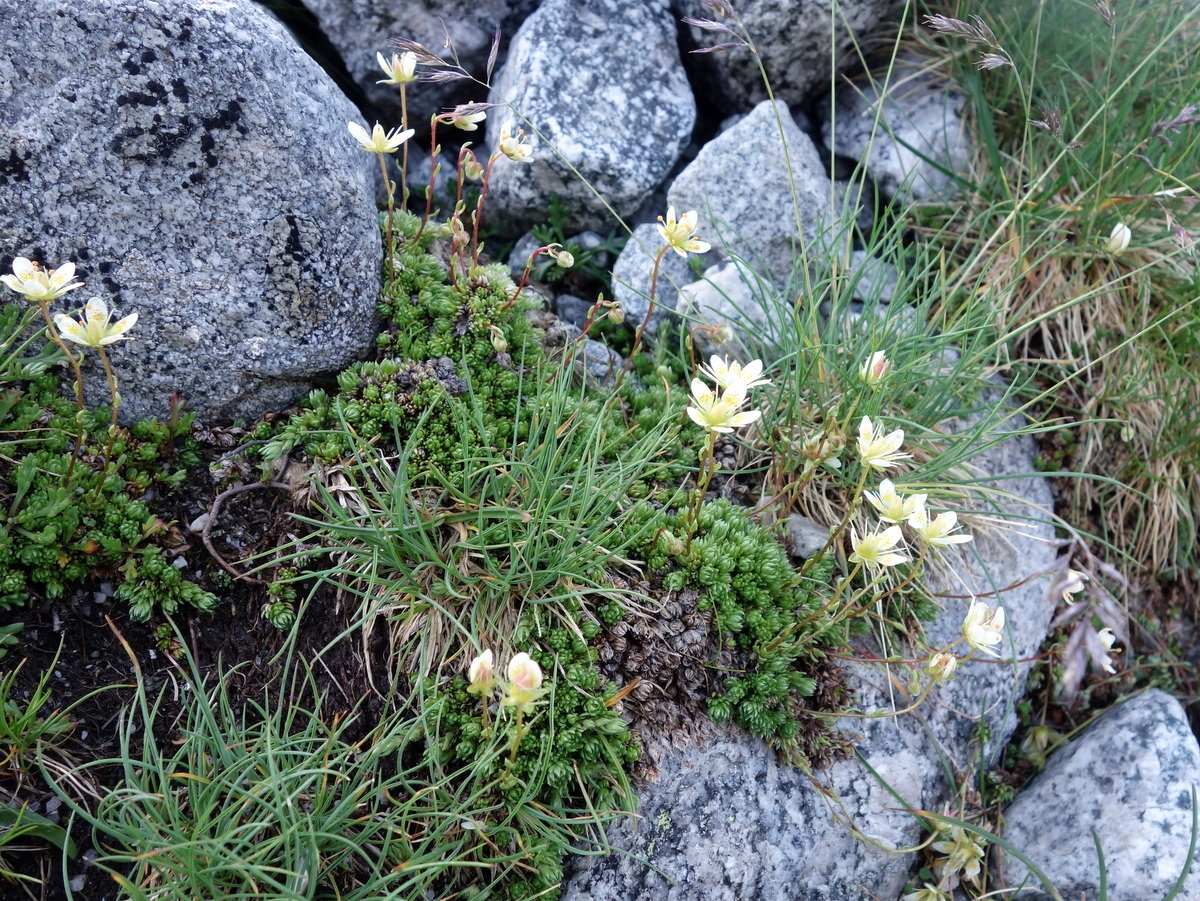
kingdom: Plantae
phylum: Tracheophyta
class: Magnoliopsida
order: Saxifragales
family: Saxifragaceae
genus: Saxifraga
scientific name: Saxifraga bryoides
